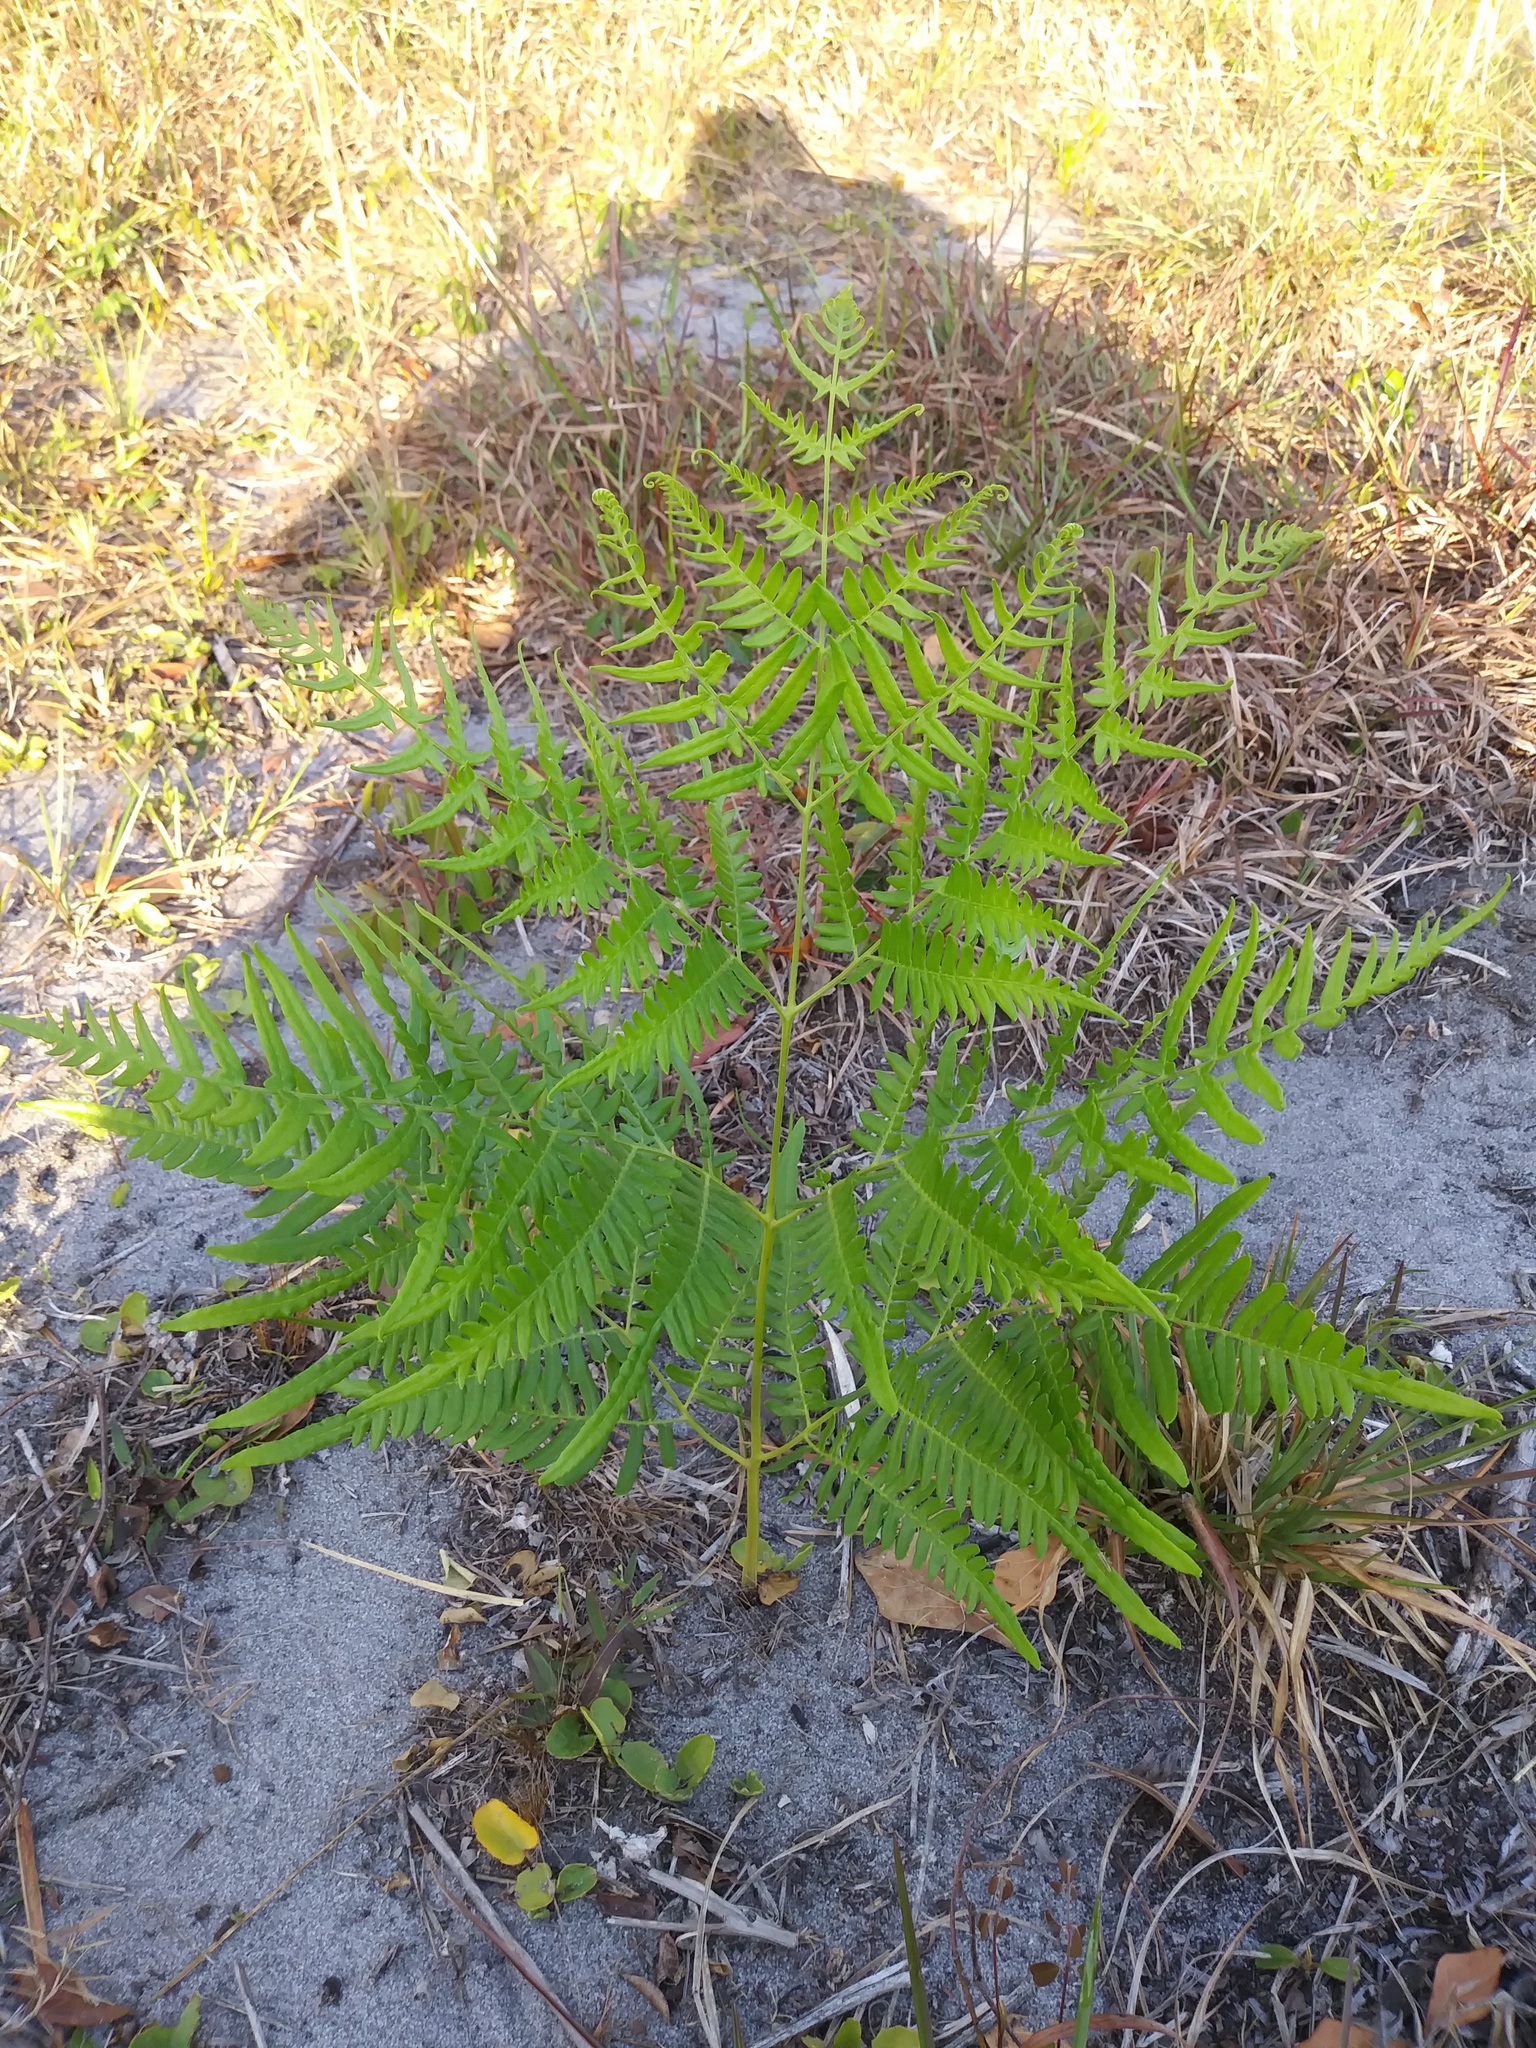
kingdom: Plantae
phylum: Tracheophyta
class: Polypodiopsida
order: Polypodiales
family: Dennstaedtiaceae
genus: Pteridium
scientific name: Pteridium
